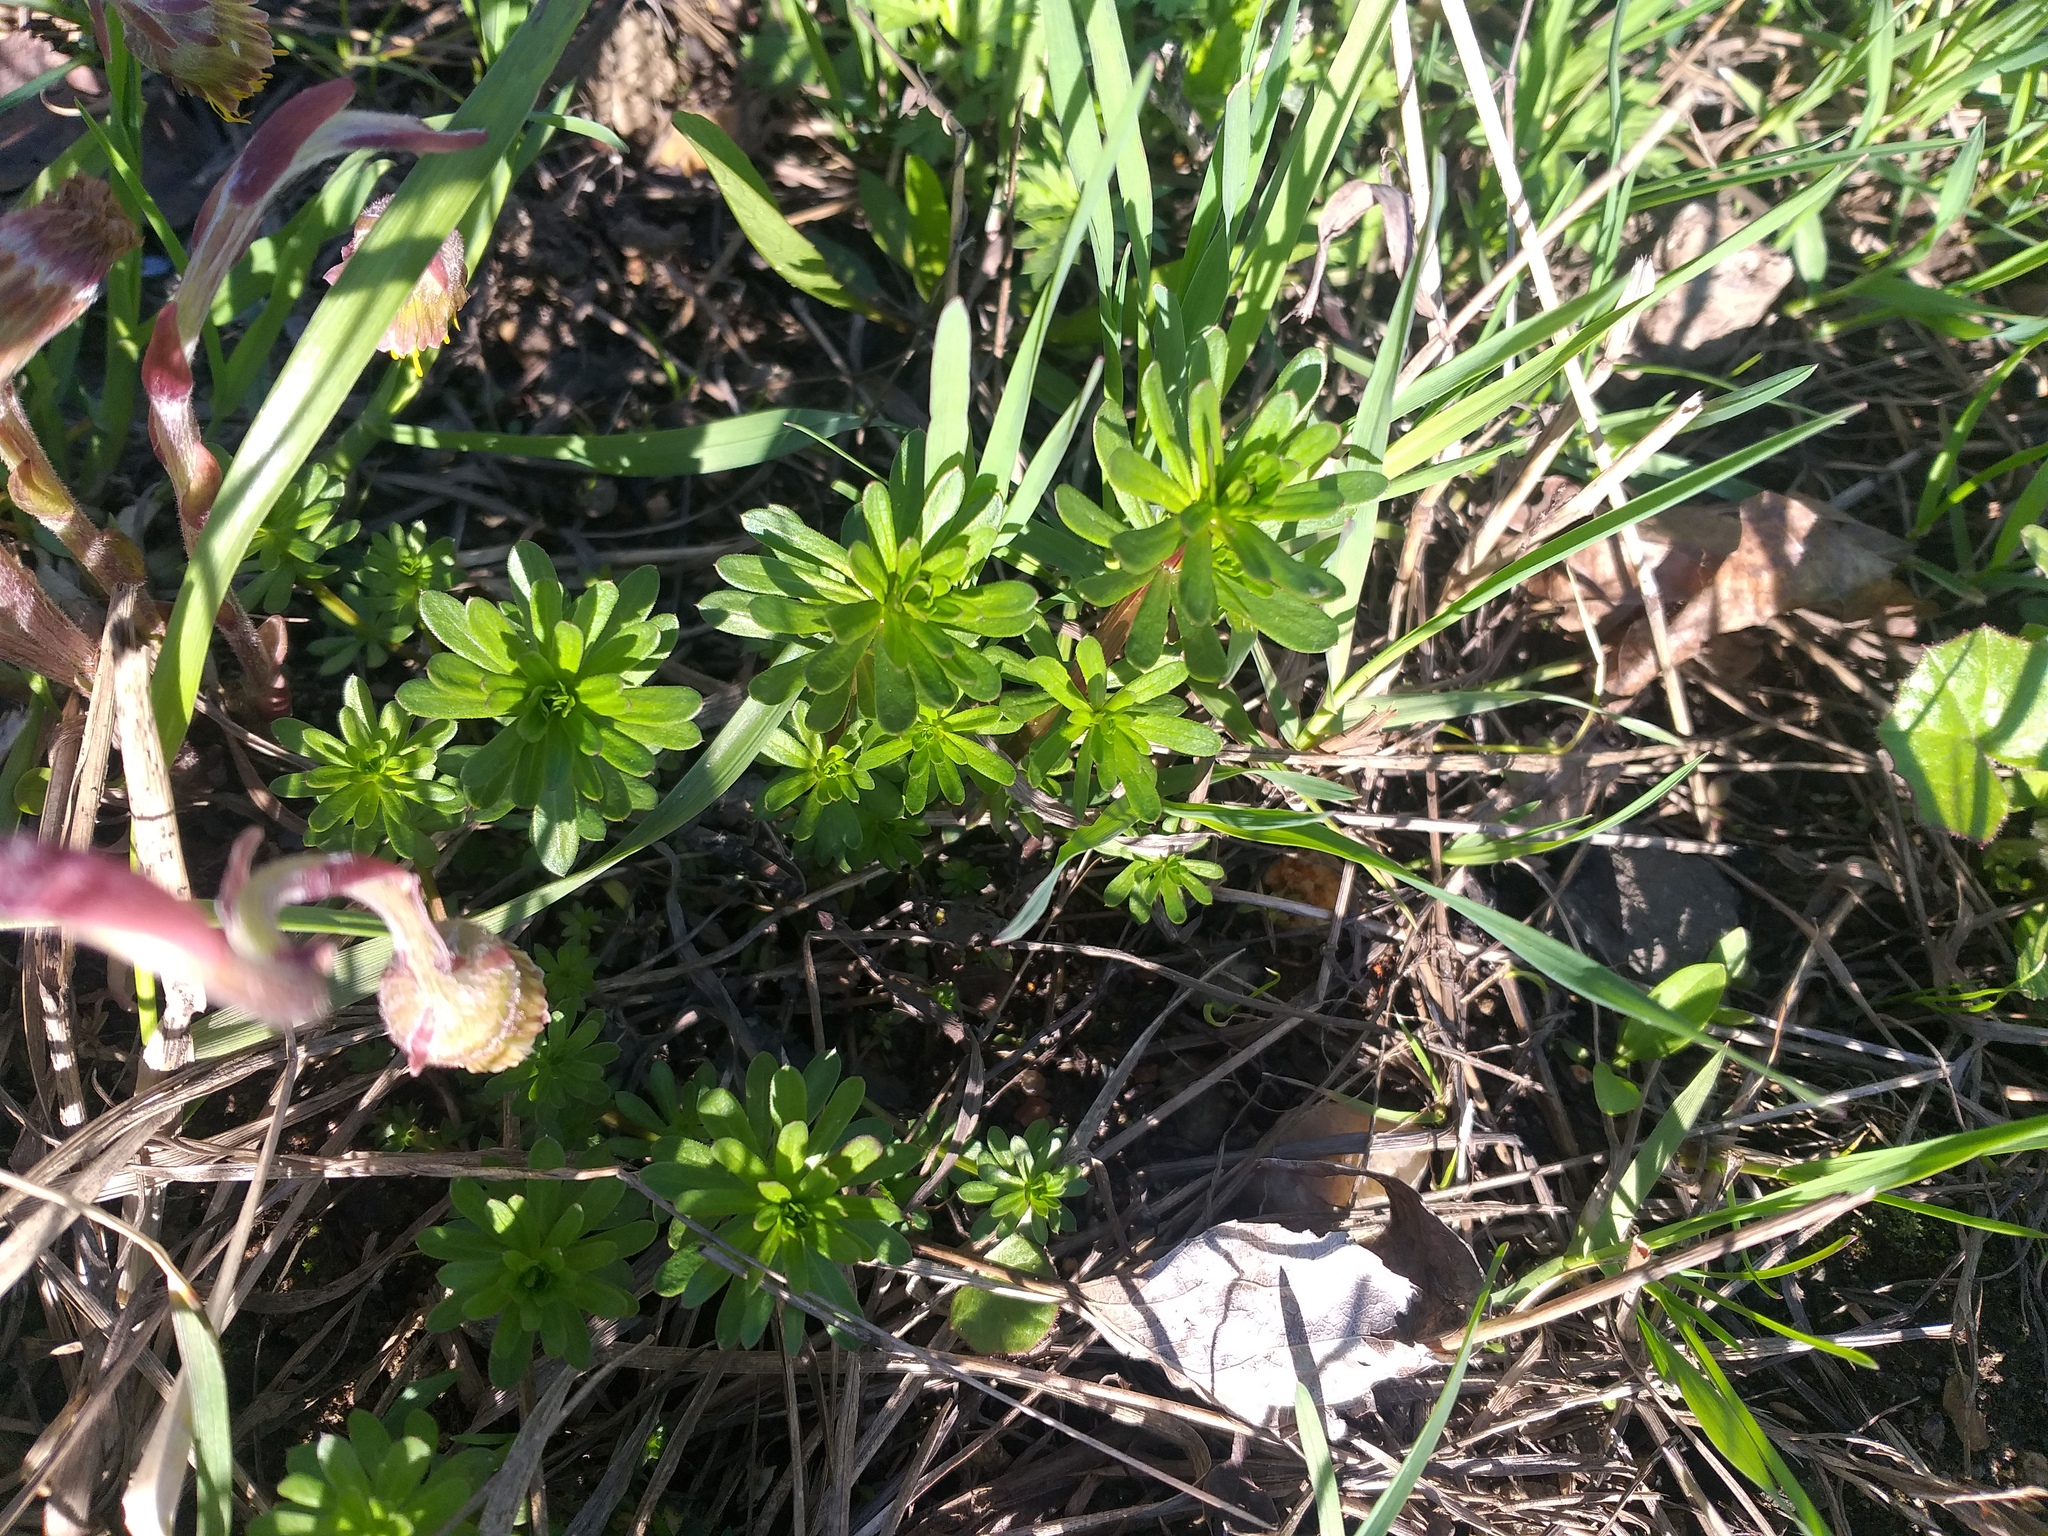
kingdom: Plantae
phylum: Tracheophyta
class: Magnoliopsida
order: Gentianales
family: Rubiaceae
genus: Galium
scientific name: Galium mollugo
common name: Hedge bedstraw
